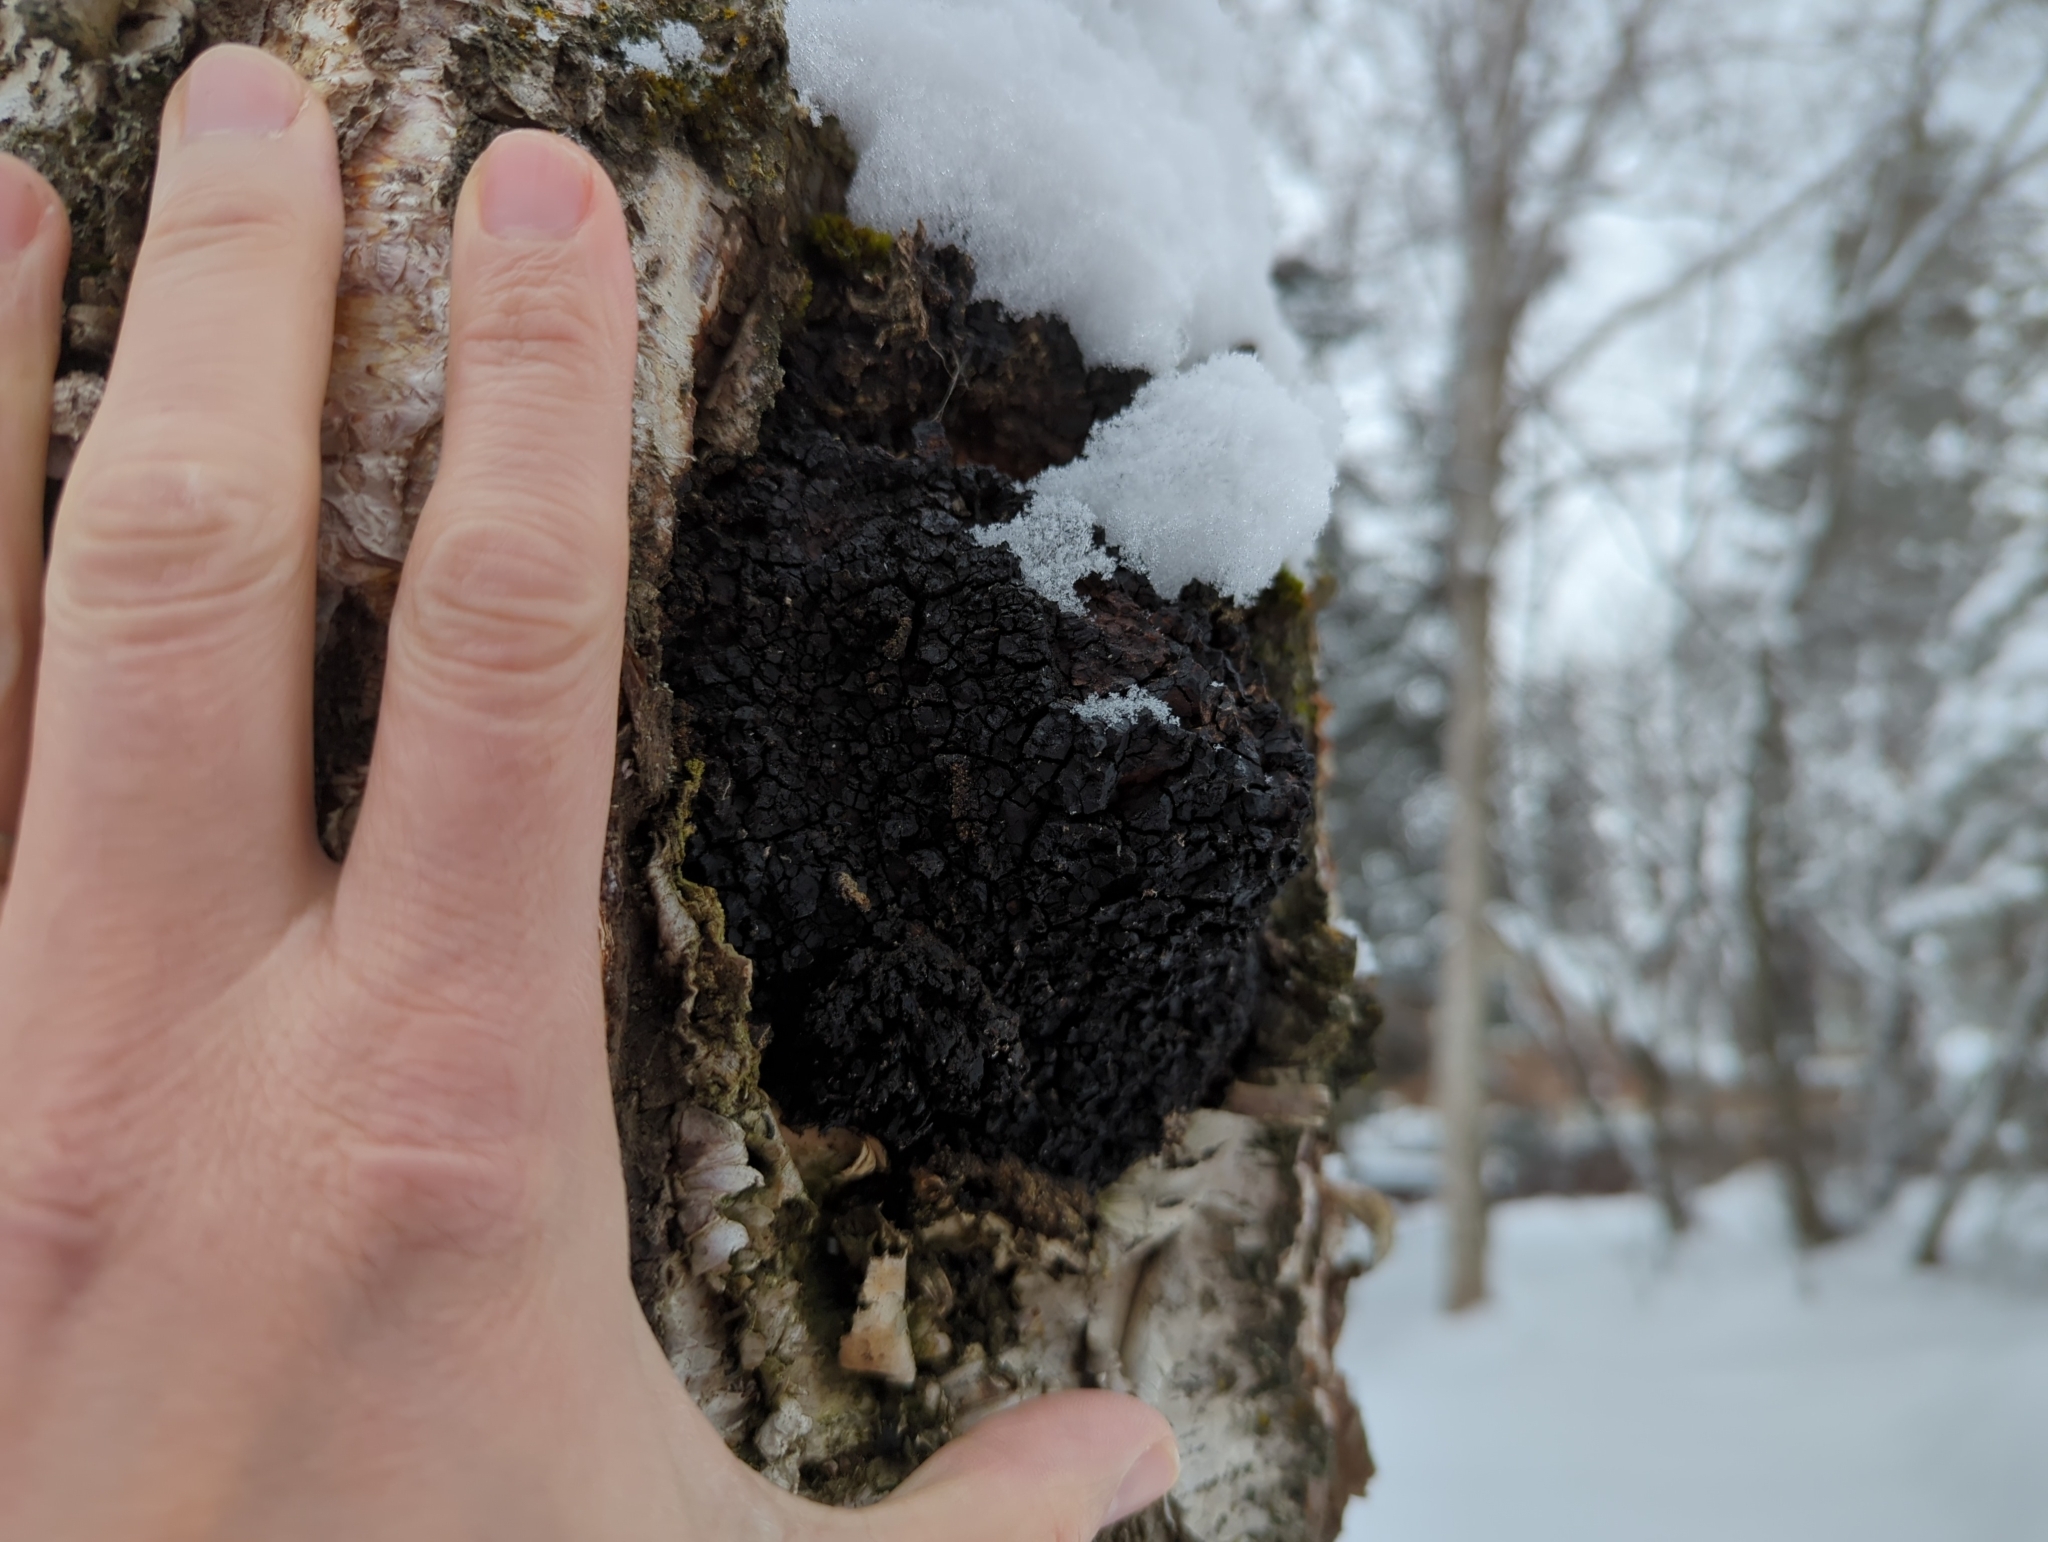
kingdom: Fungi
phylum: Basidiomycota
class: Agaricomycetes
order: Hymenochaetales
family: Hymenochaetaceae
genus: Inonotus
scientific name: Inonotus obliquus
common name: Chaga
